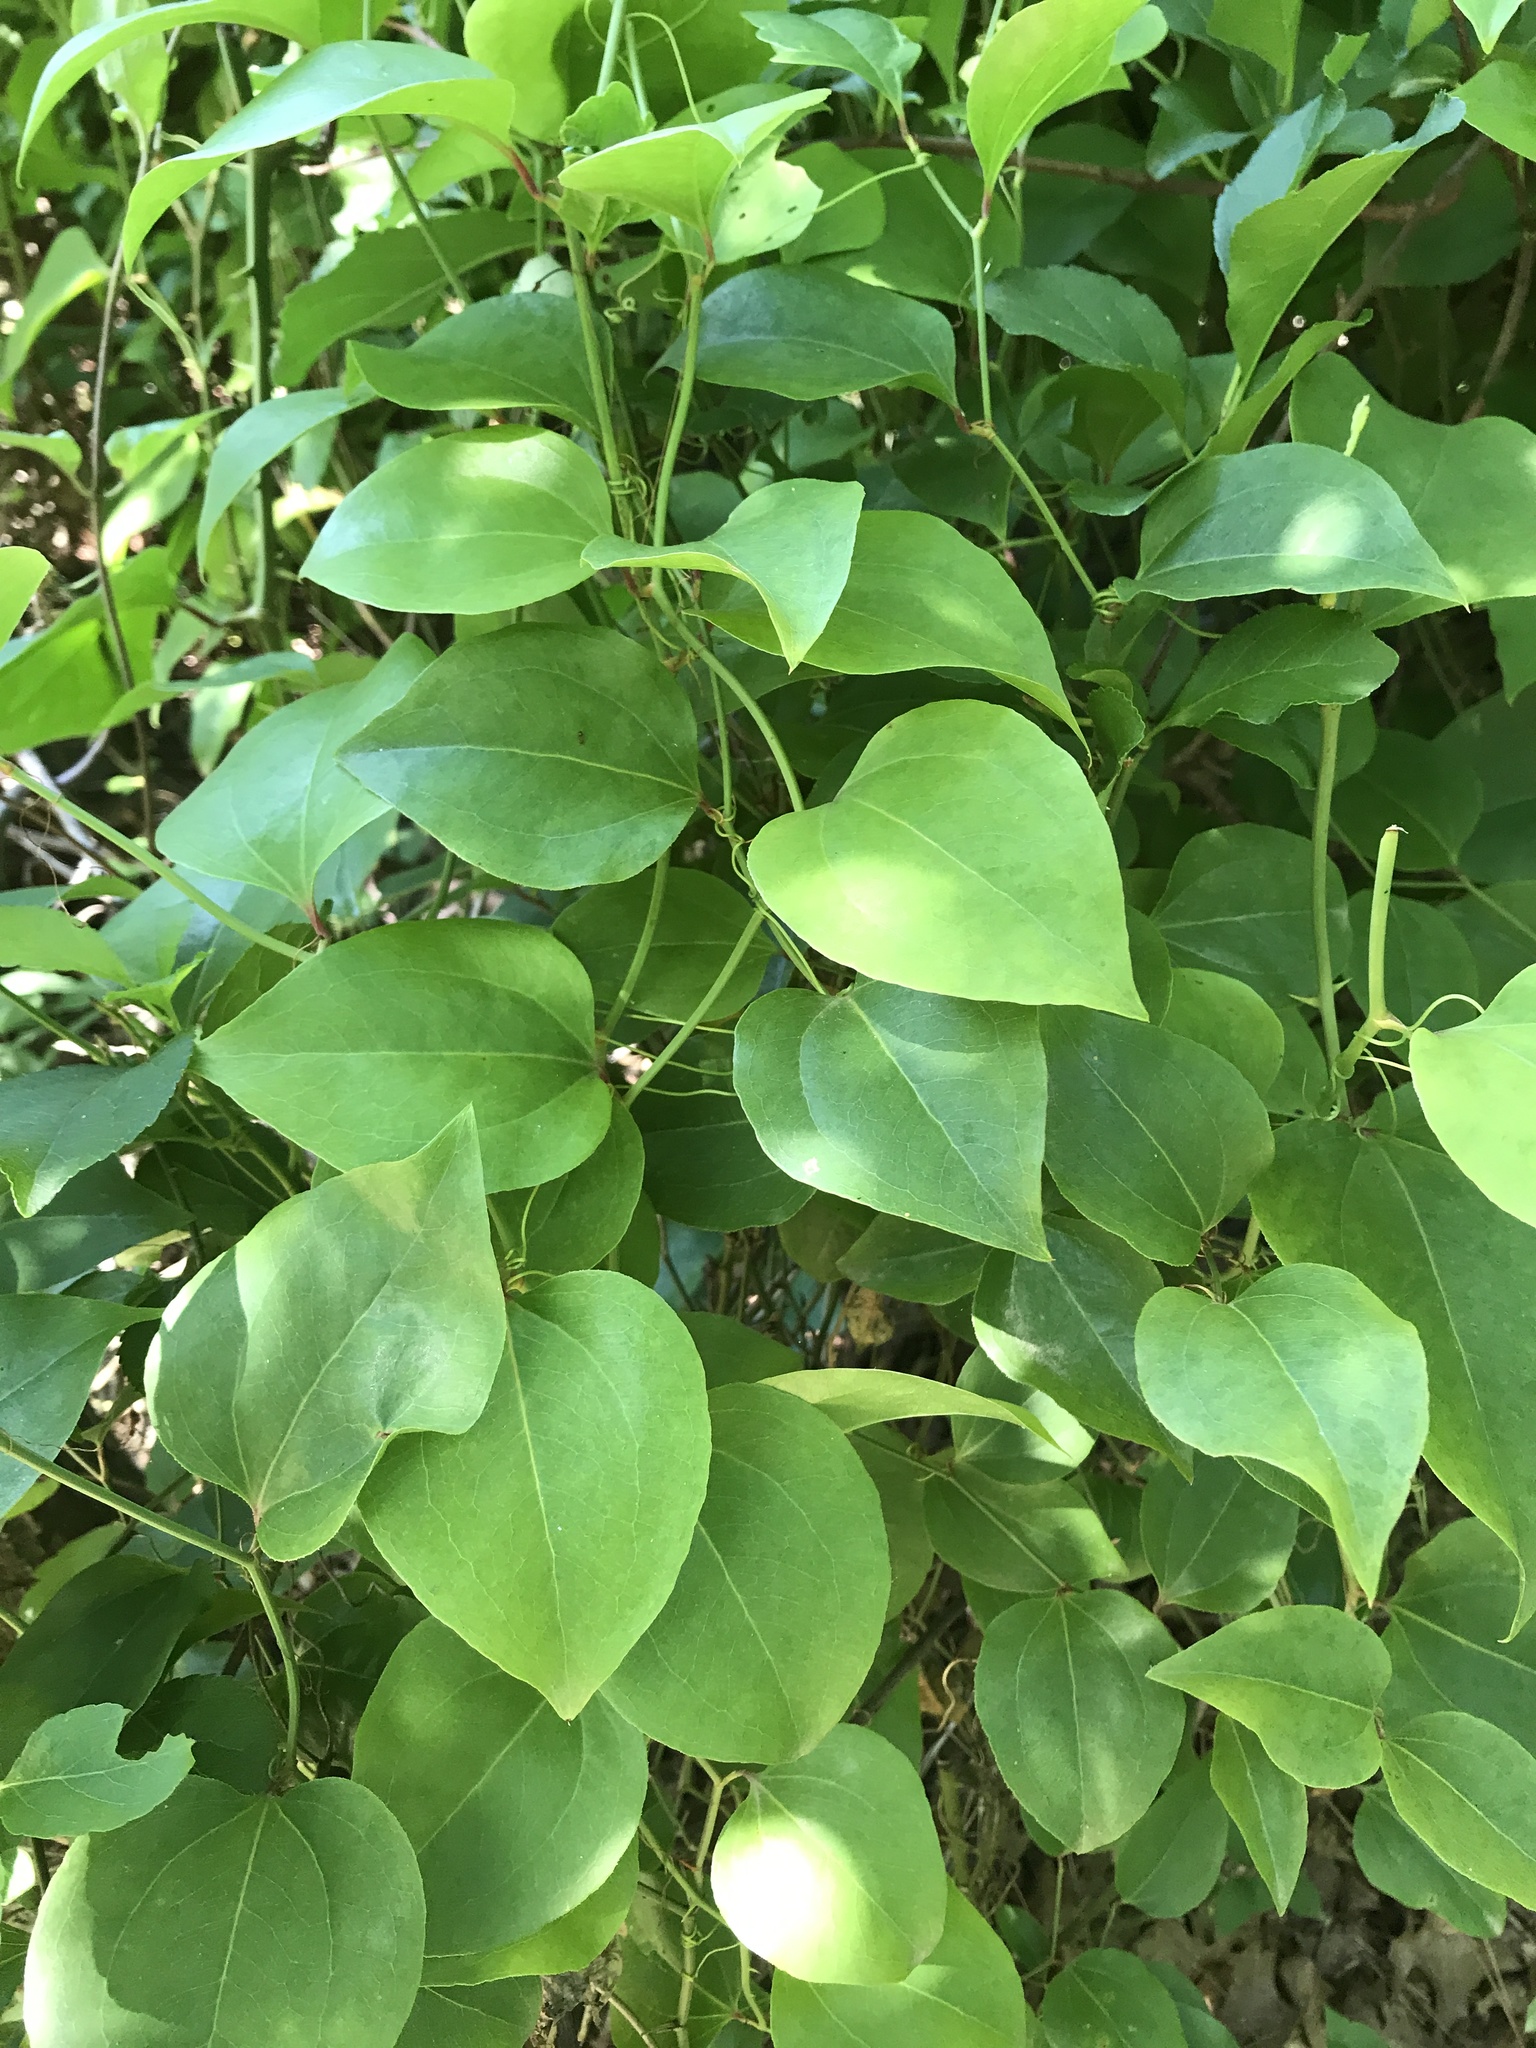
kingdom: Plantae
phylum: Tracheophyta
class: Liliopsida
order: Liliales
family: Smilacaceae
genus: Smilax
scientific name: Smilax rotundifolia
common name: Bullbriar
